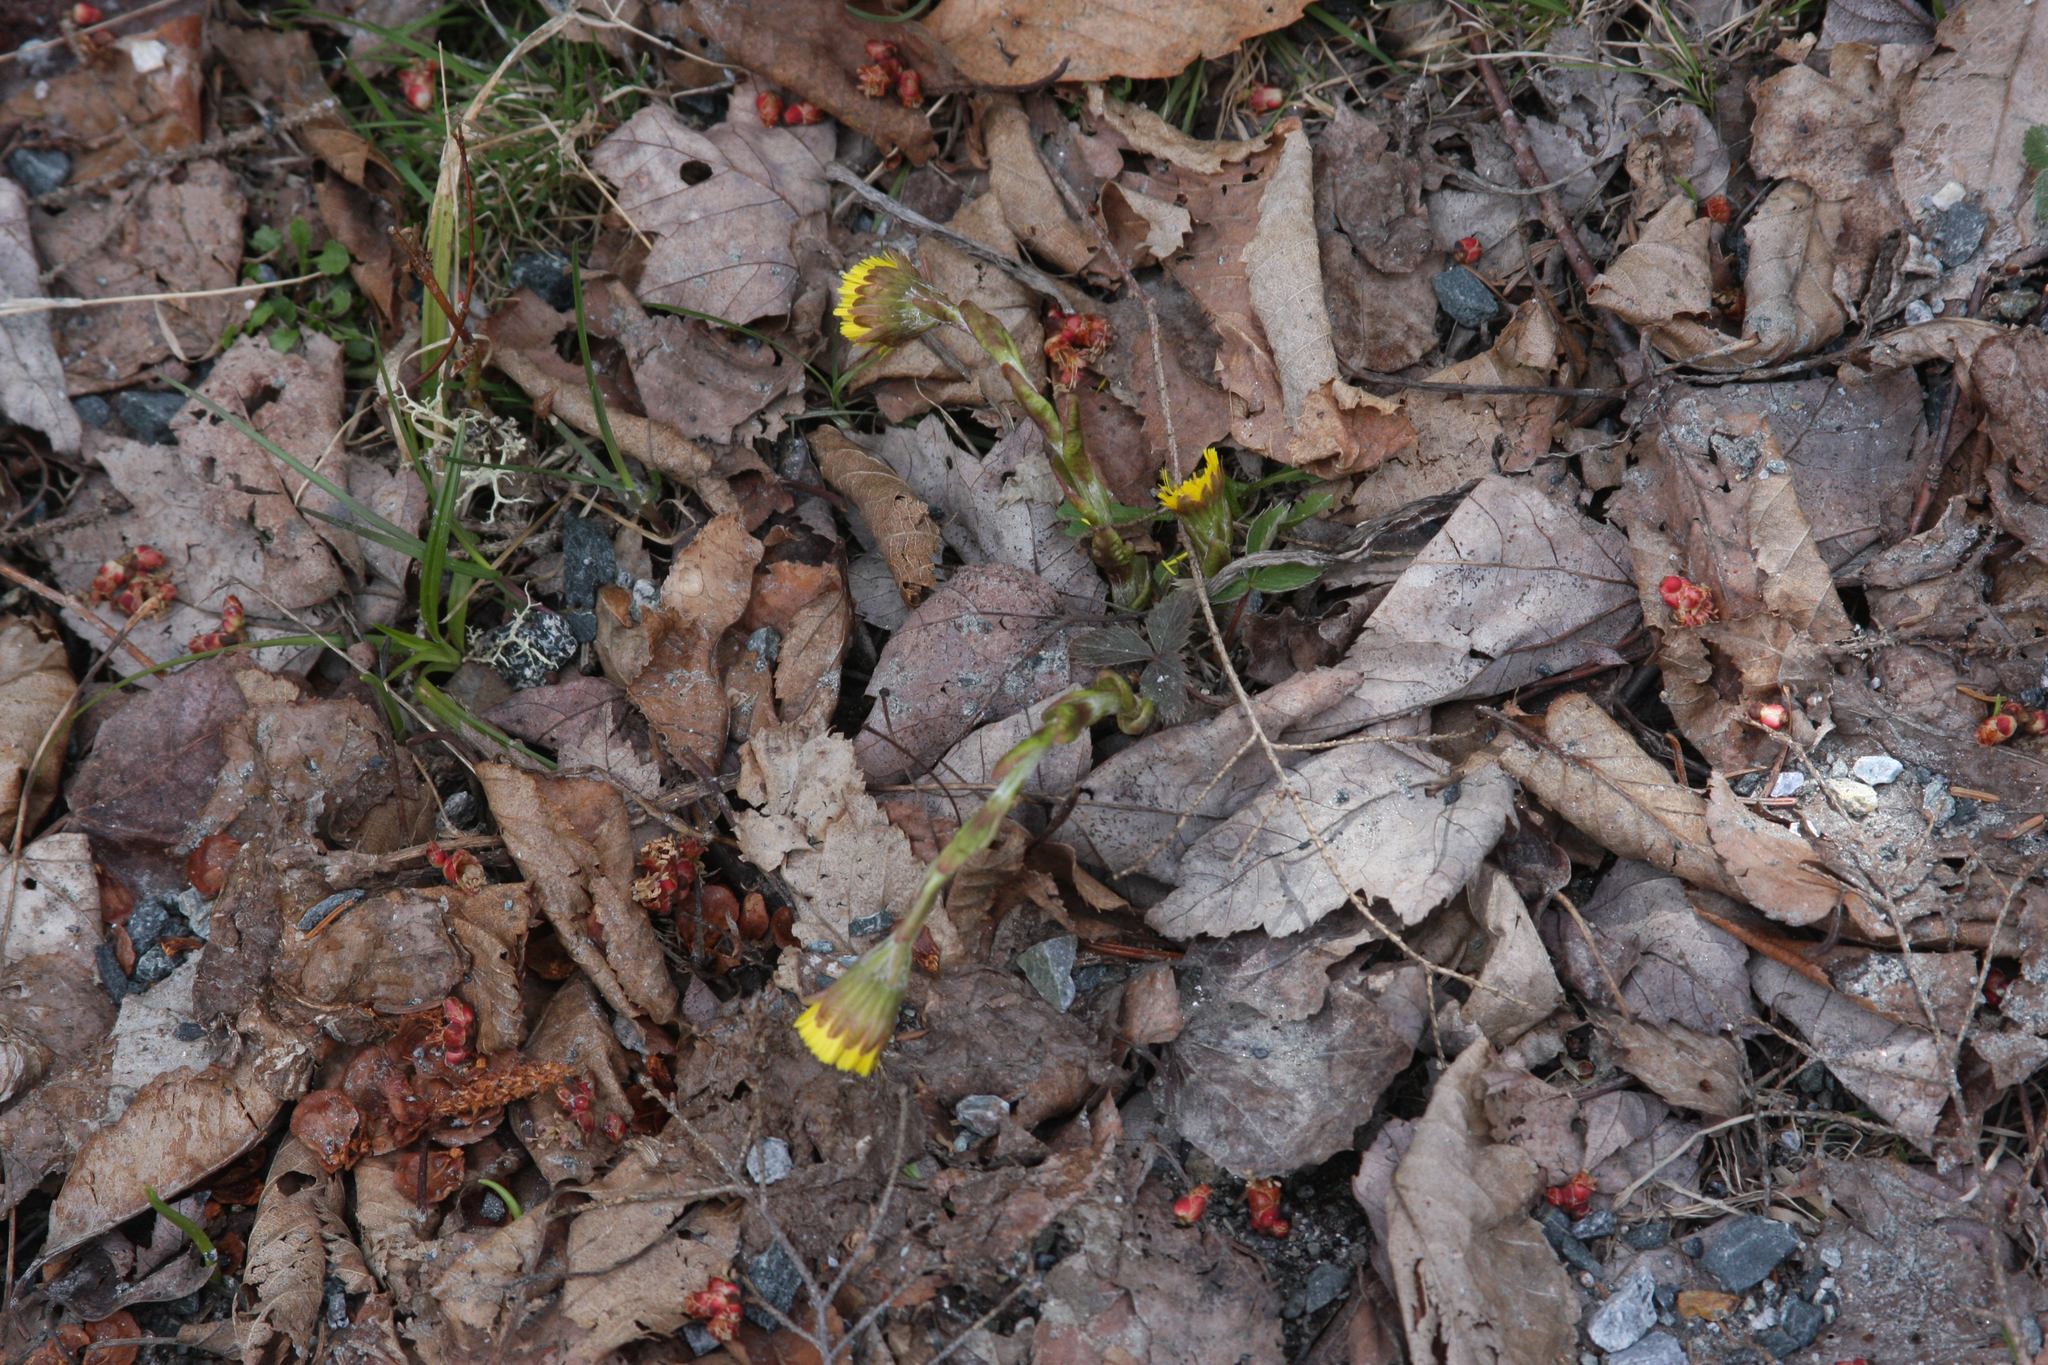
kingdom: Plantae
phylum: Tracheophyta
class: Magnoliopsida
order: Asterales
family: Asteraceae
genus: Tussilago
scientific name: Tussilago farfara
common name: Coltsfoot
